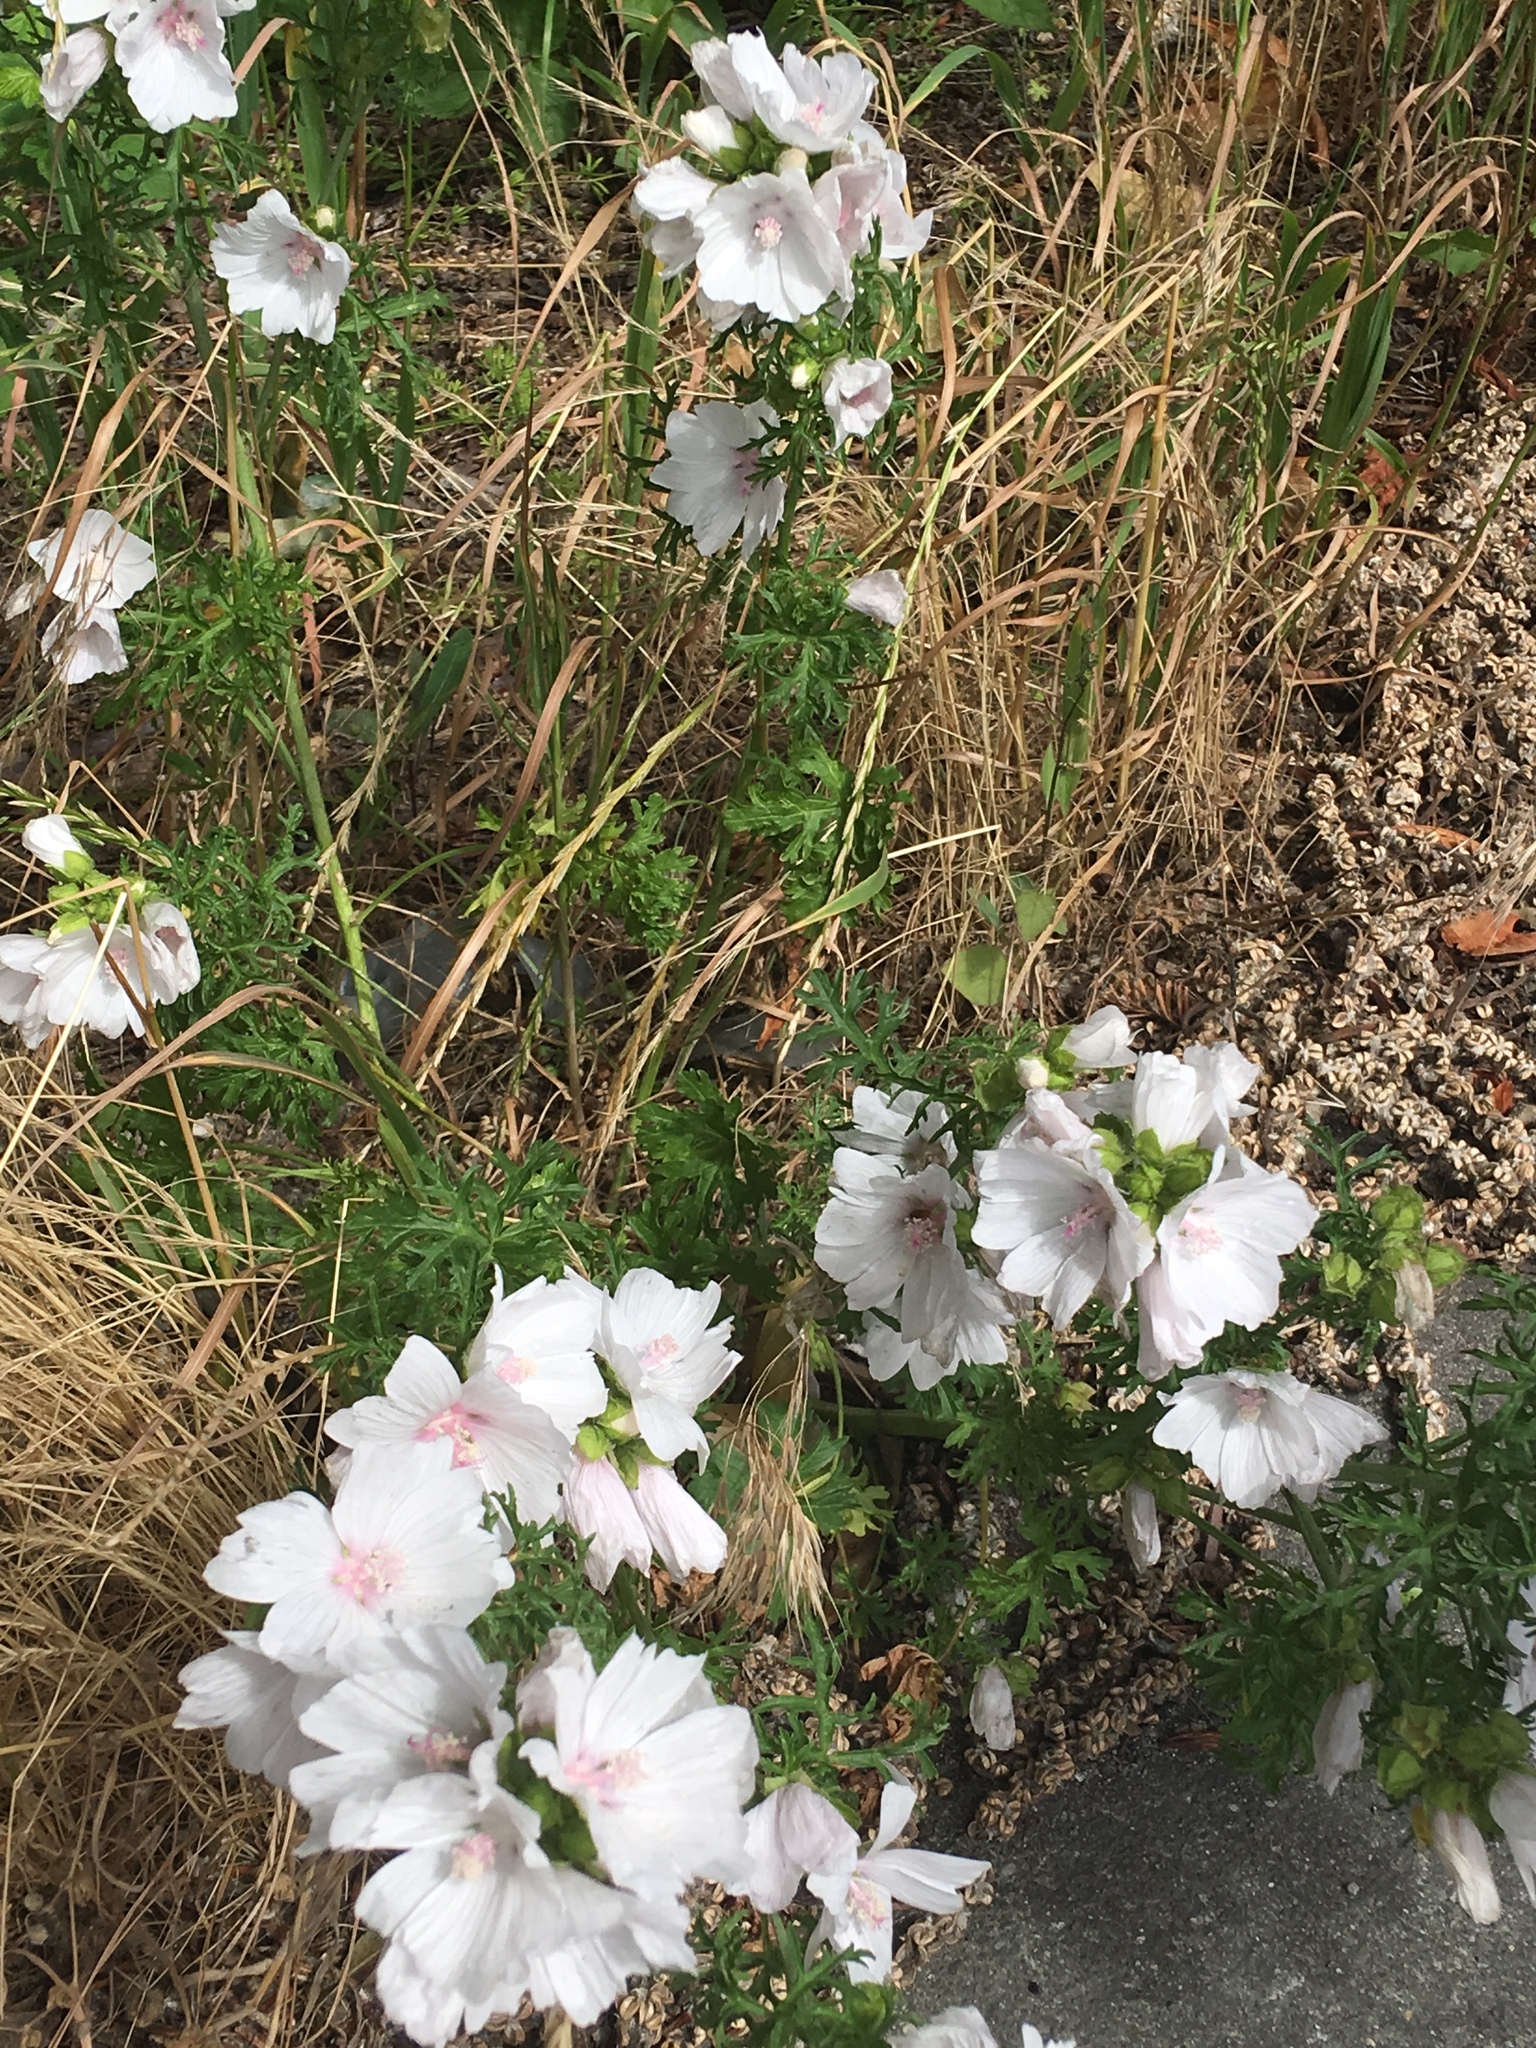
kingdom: Plantae
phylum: Tracheophyta
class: Magnoliopsida
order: Malvales
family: Malvaceae
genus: Malva
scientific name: Malva moschata
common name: Musk mallow
